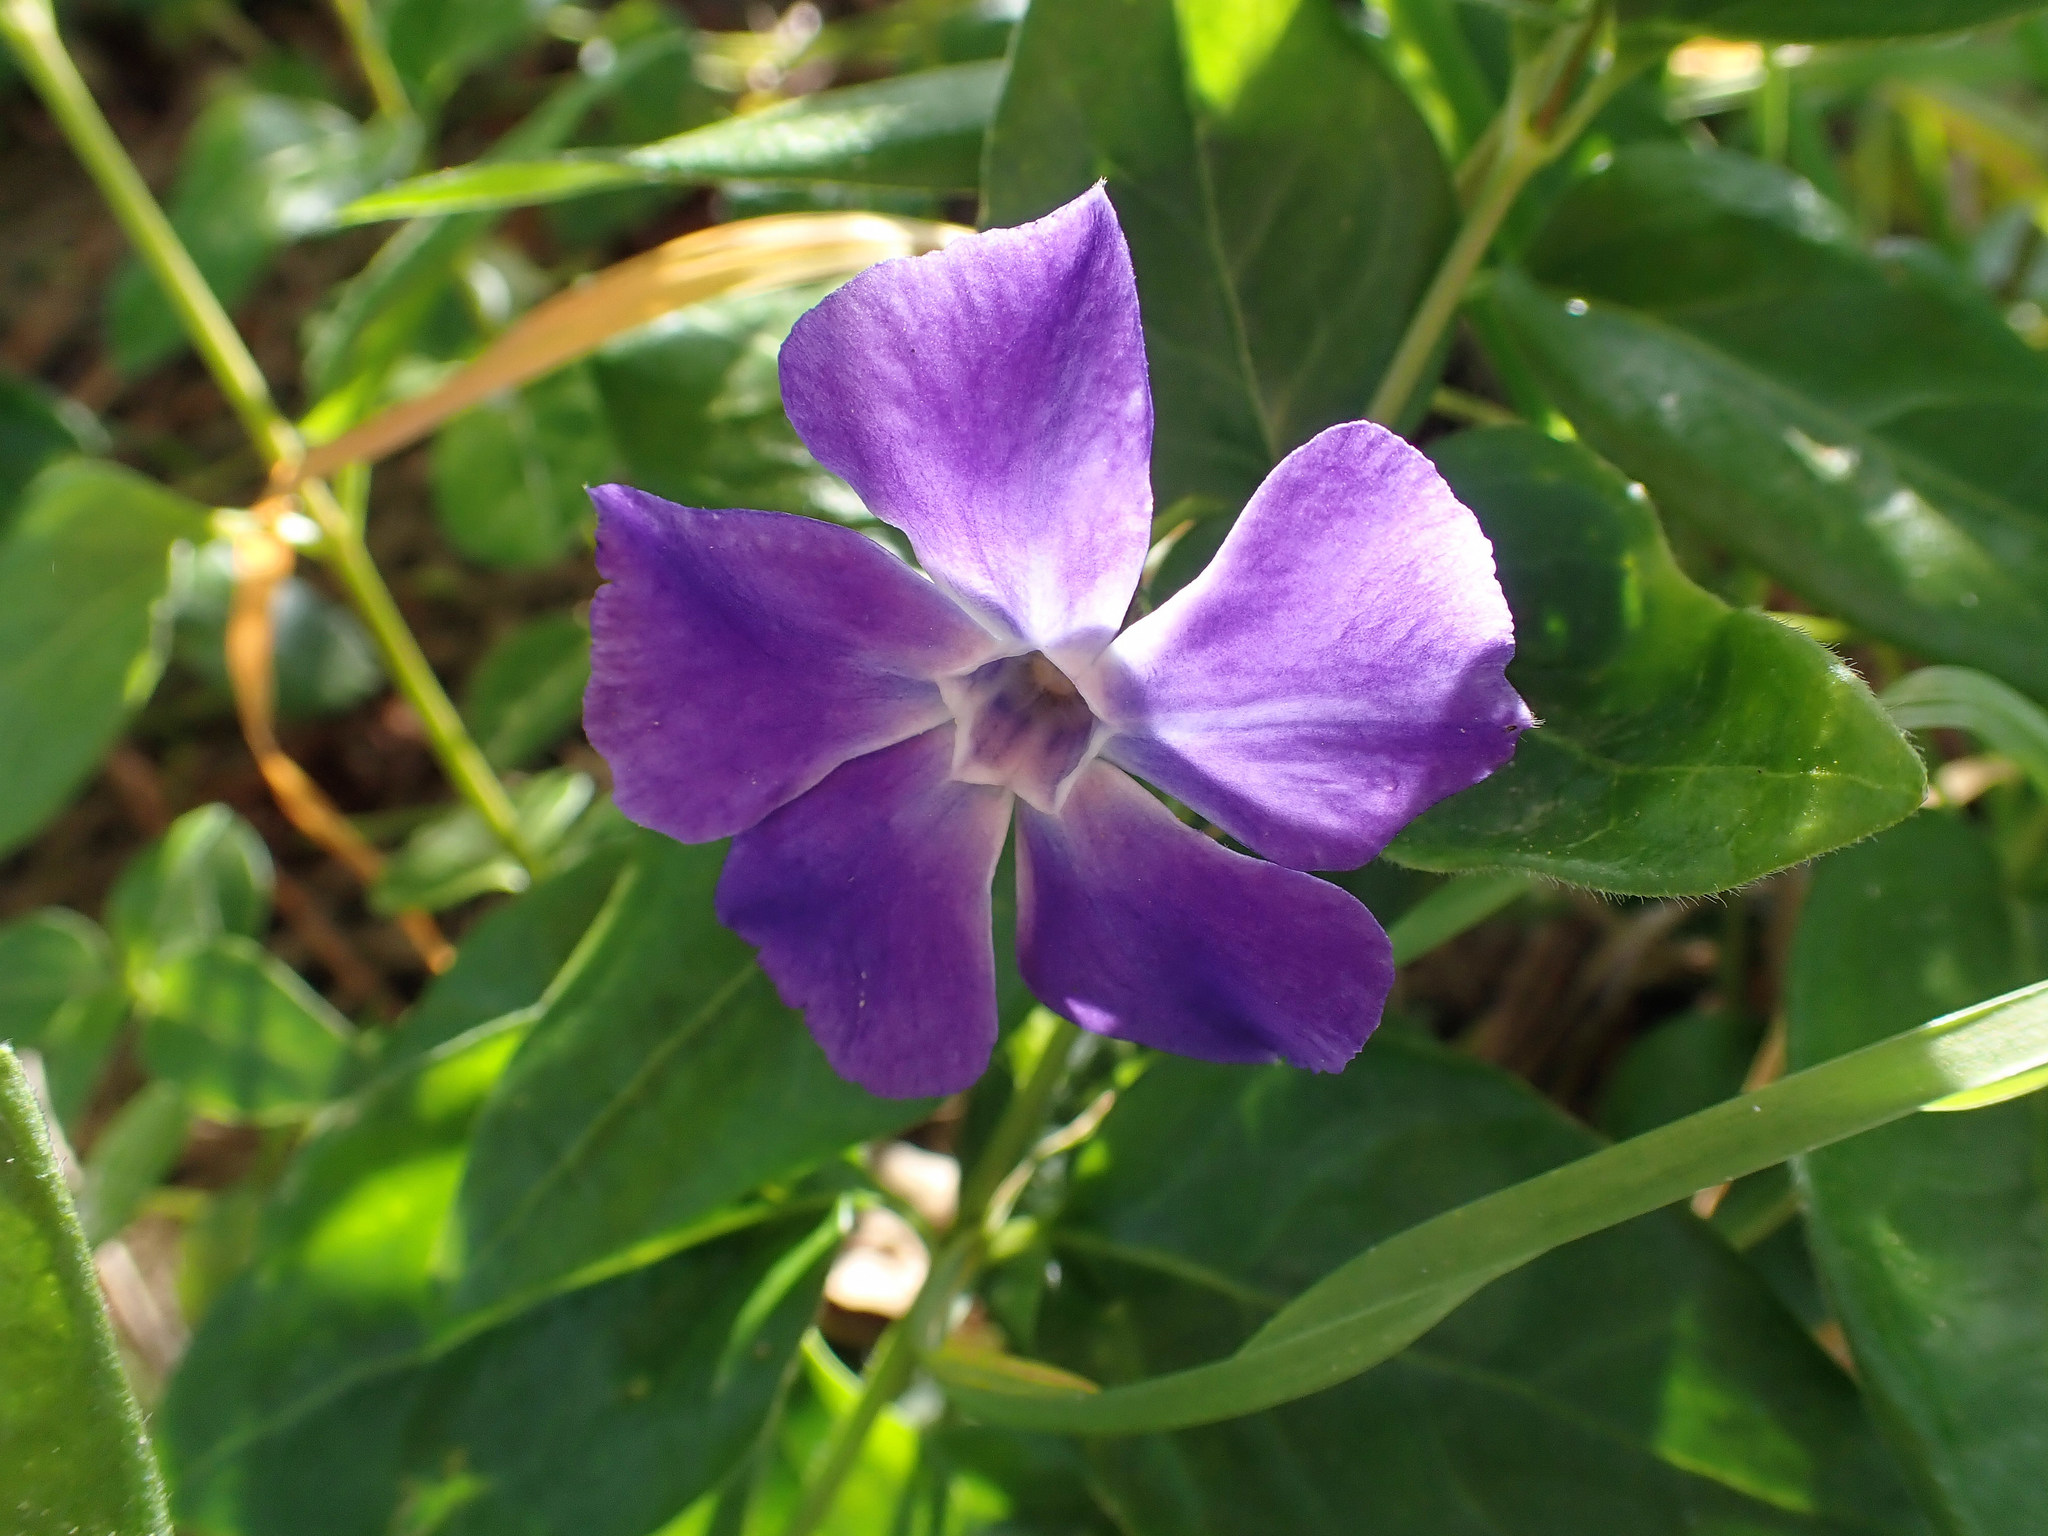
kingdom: Plantae
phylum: Tracheophyta
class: Magnoliopsida
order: Gentianales
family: Apocynaceae
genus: Vinca
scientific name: Vinca major
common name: Greater periwinkle
